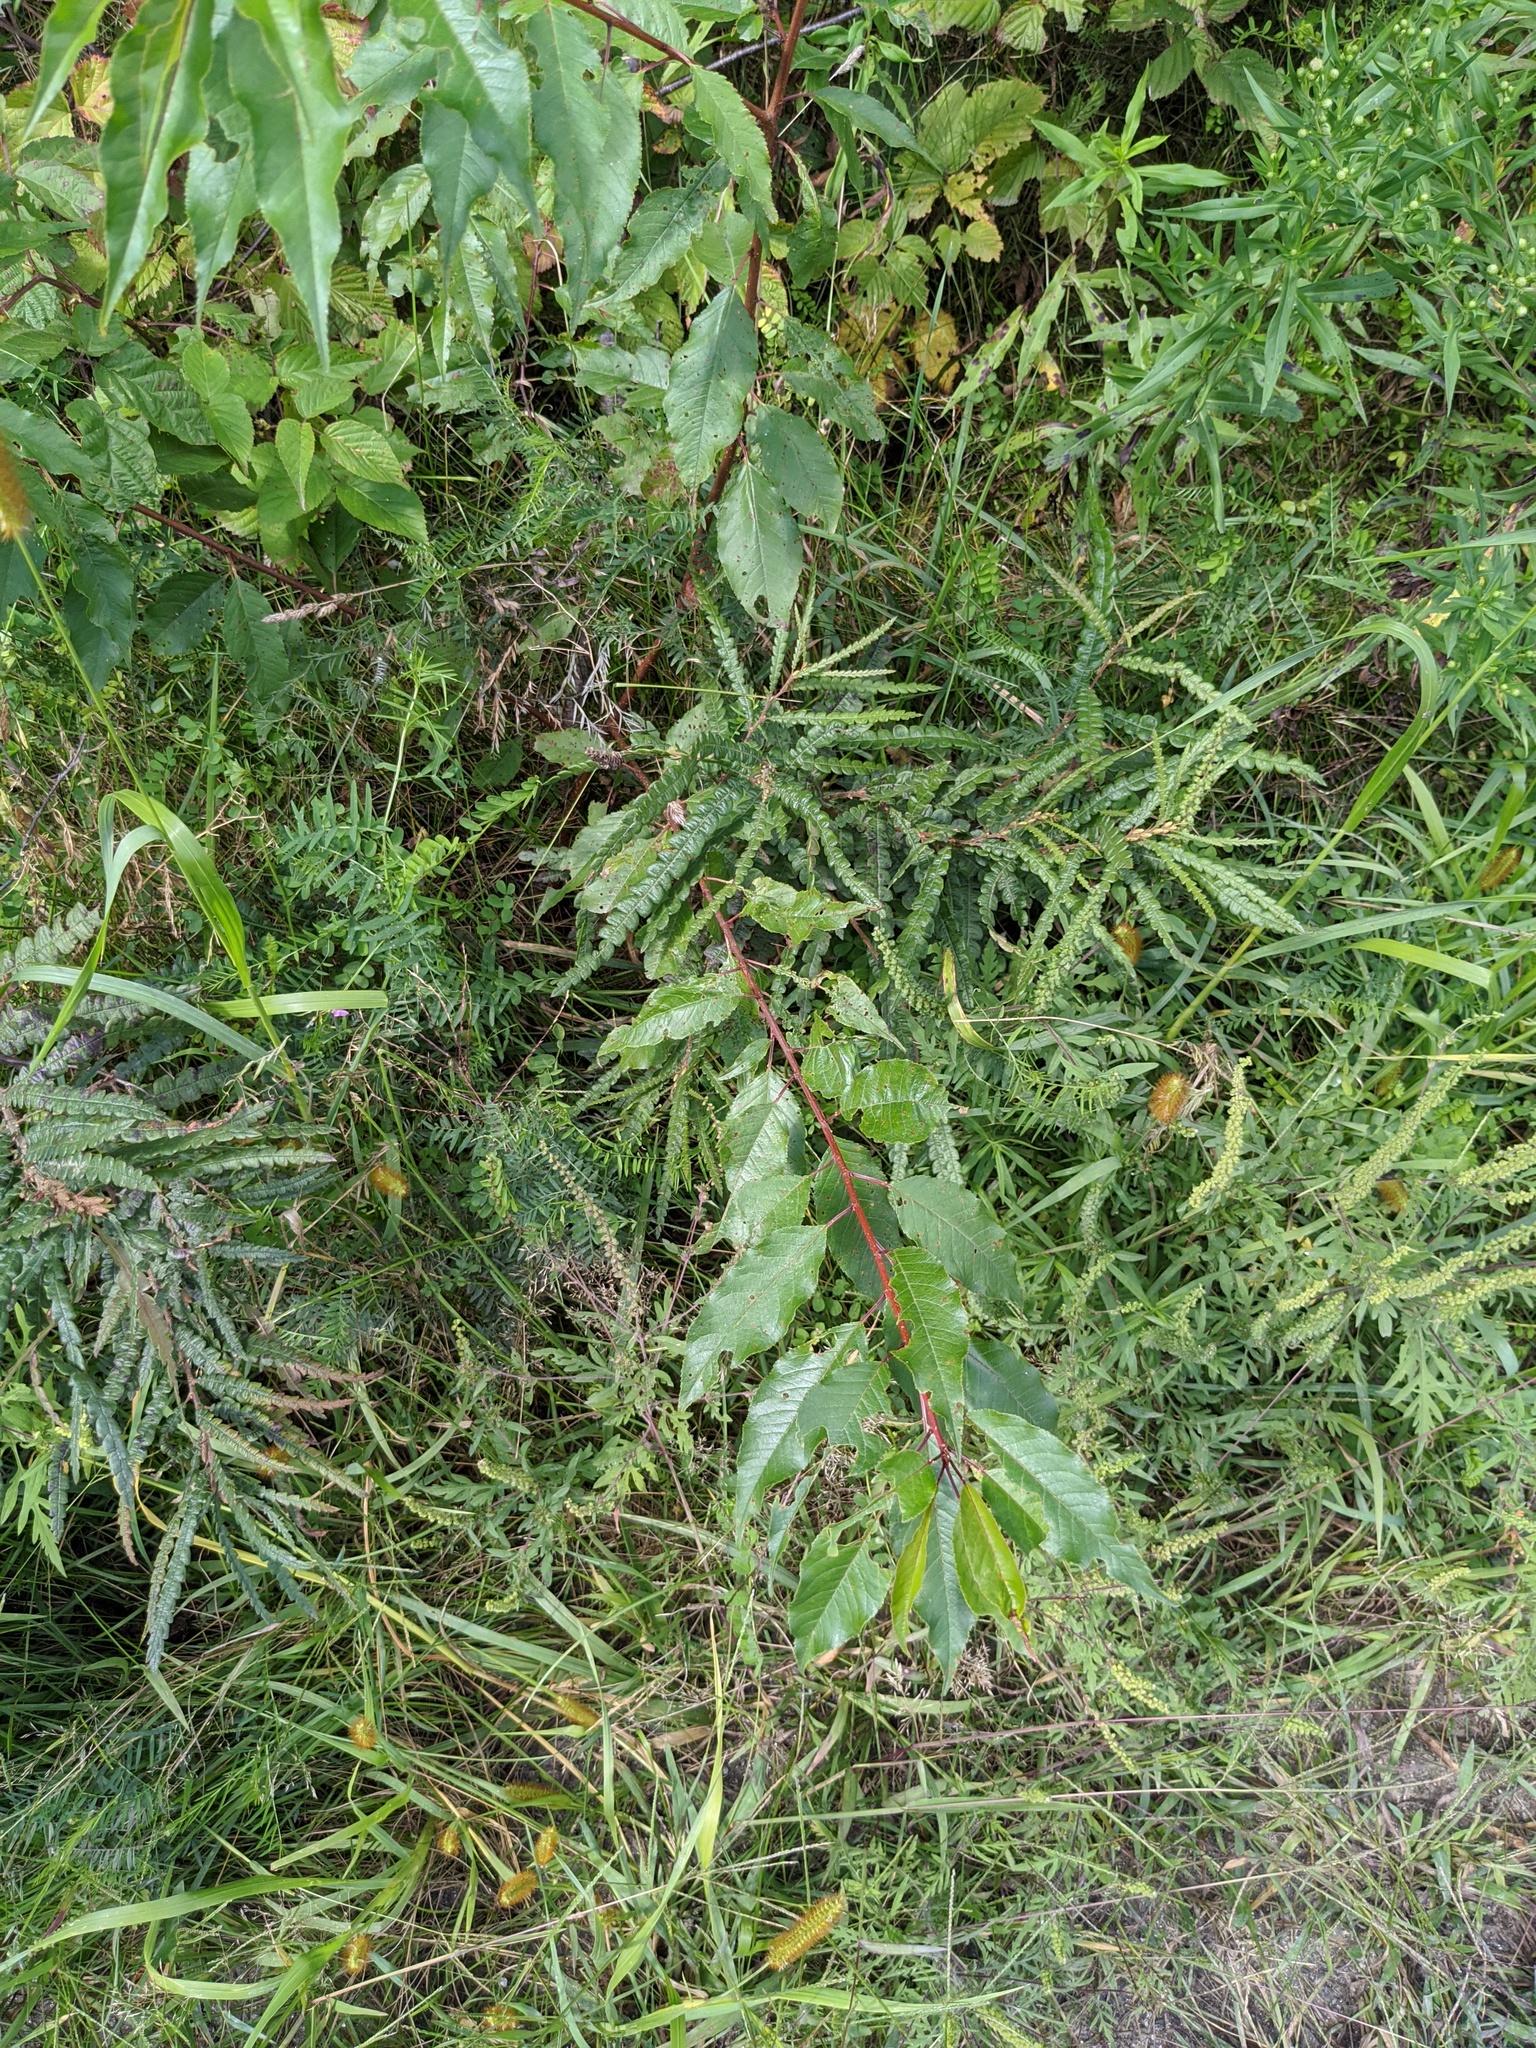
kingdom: Plantae
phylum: Tracheophyta
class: Magnoliopsida
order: Fagales
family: Myricaceae
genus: Comptonia
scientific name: Comptonia peregrina
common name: Sweet-fern
